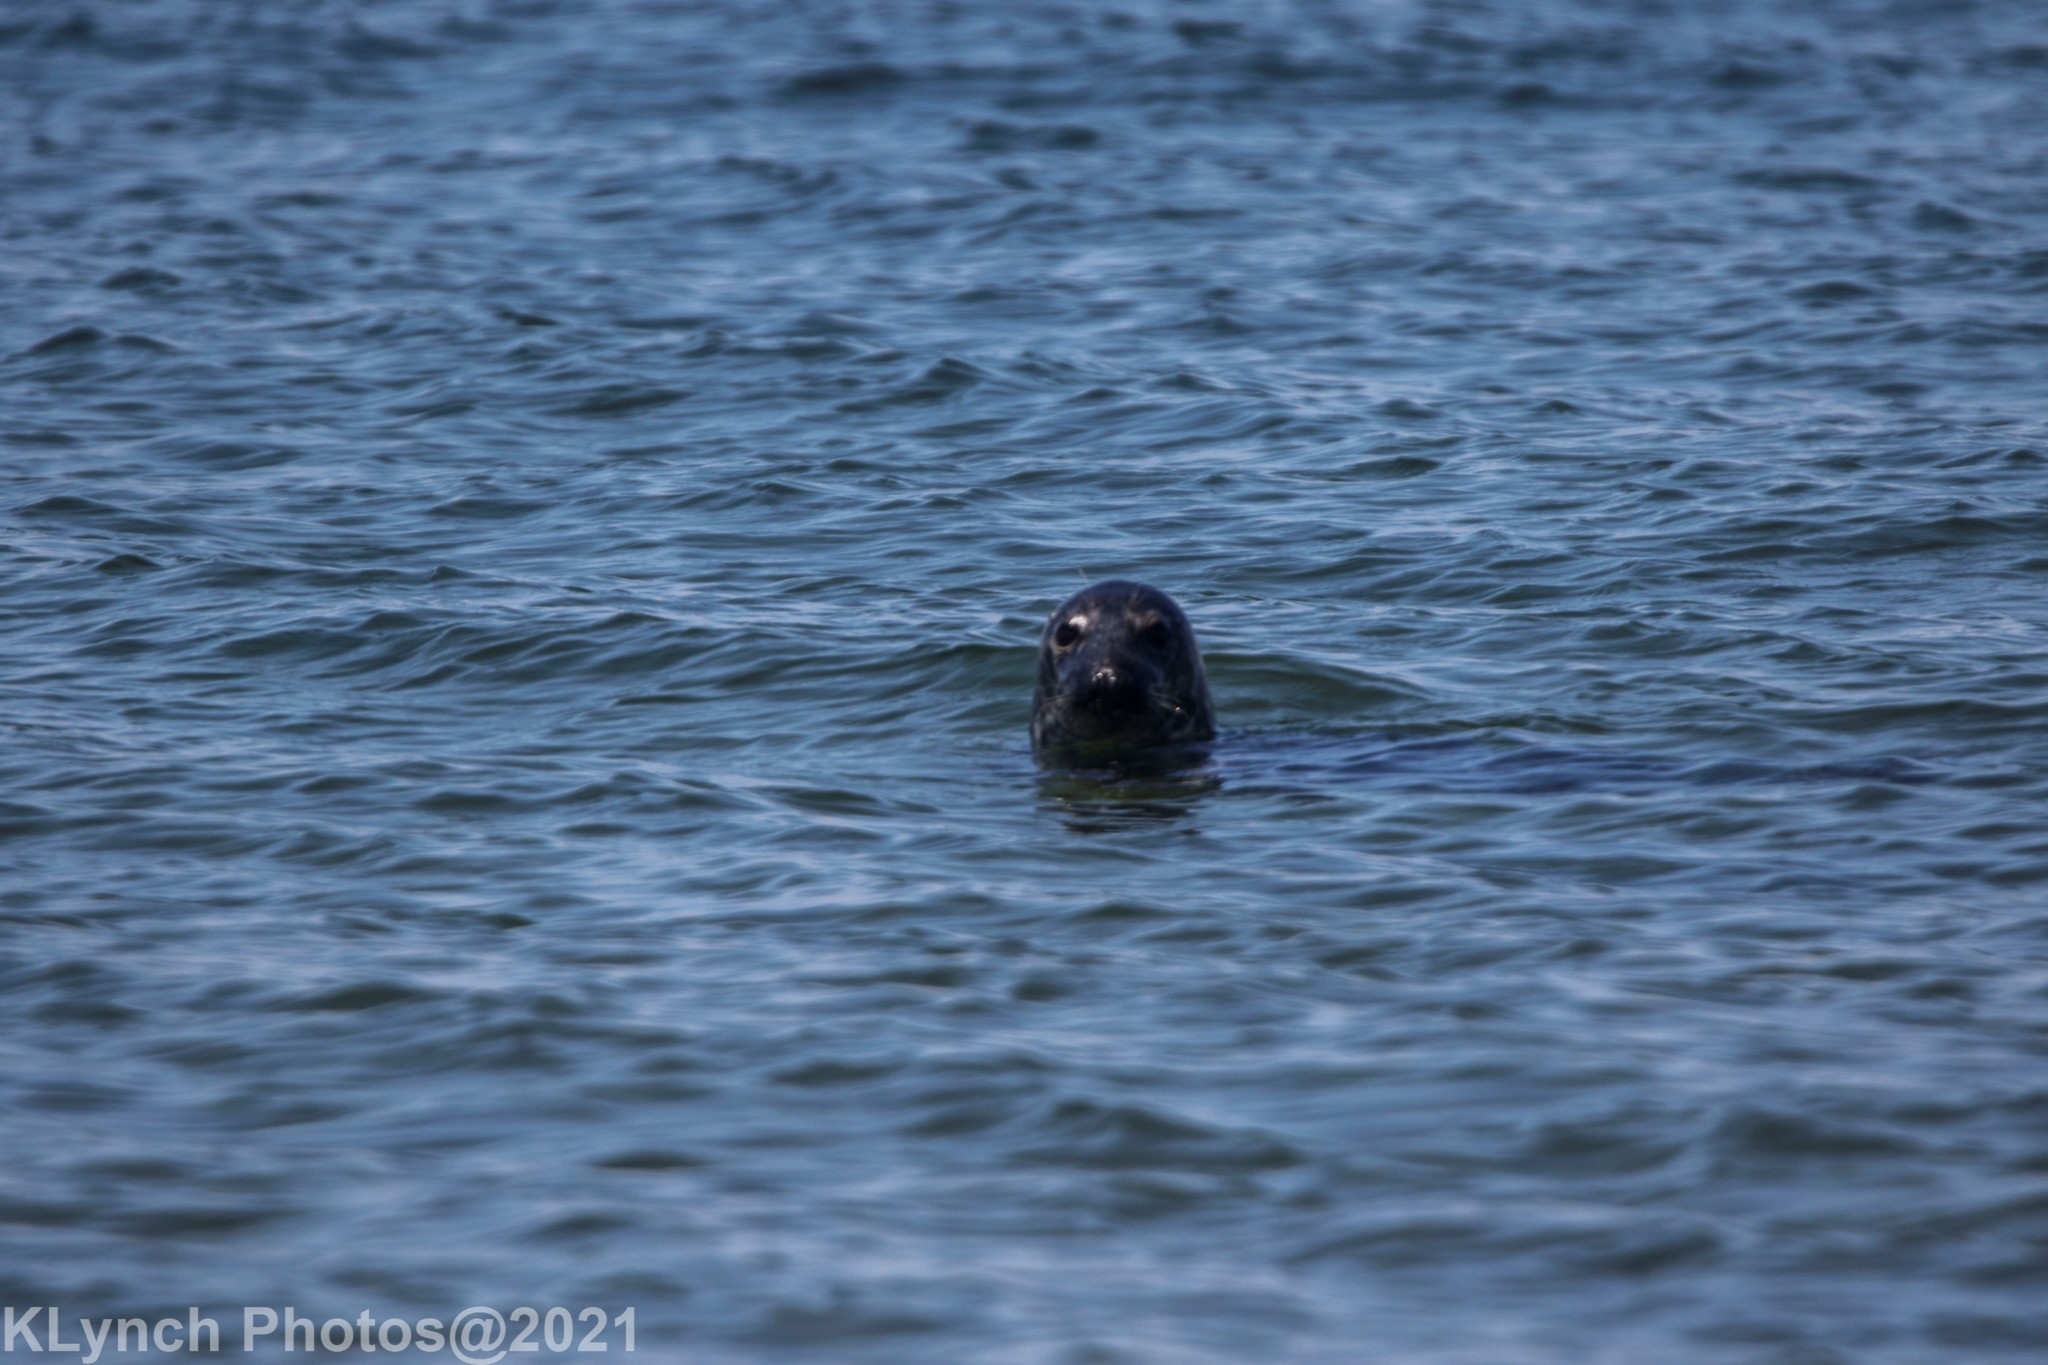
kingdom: Animalia
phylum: Chordata
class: Mammalia
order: Carnivora
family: Phocidae
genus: Halichoerus
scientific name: Halichoerus grypus
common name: Grey seal
